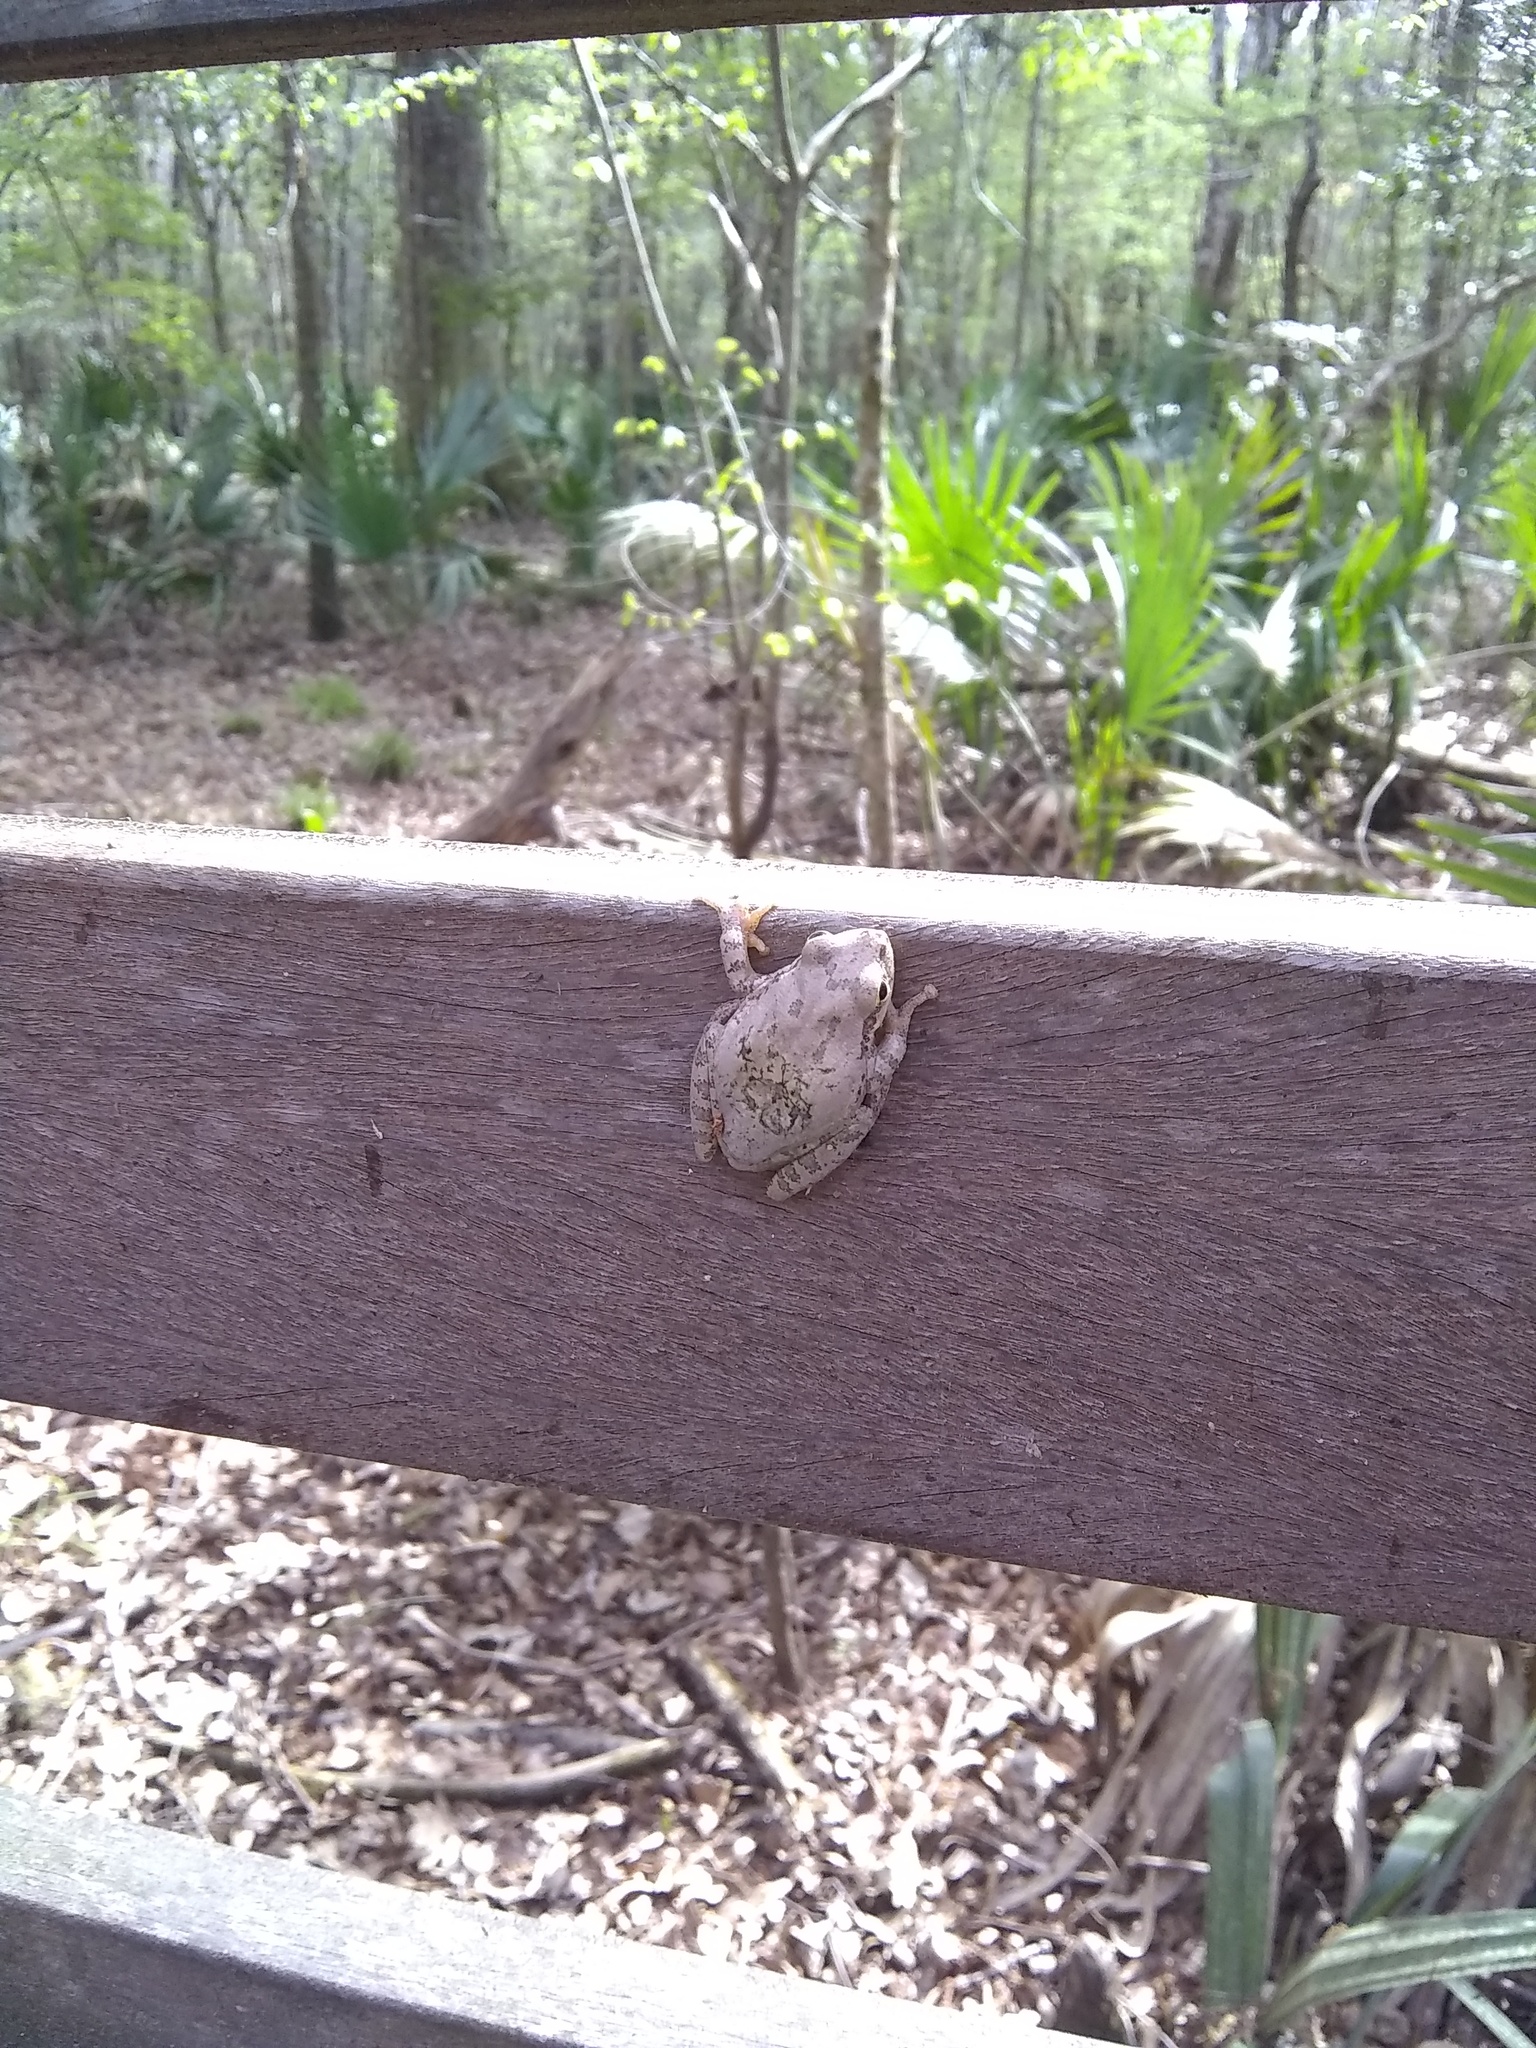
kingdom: Animalia
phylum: Chordata
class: Amphibia
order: Anura
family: Hylidae
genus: Dryophytes
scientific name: Dryophytes squirellus
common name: Squirrel treefrog
